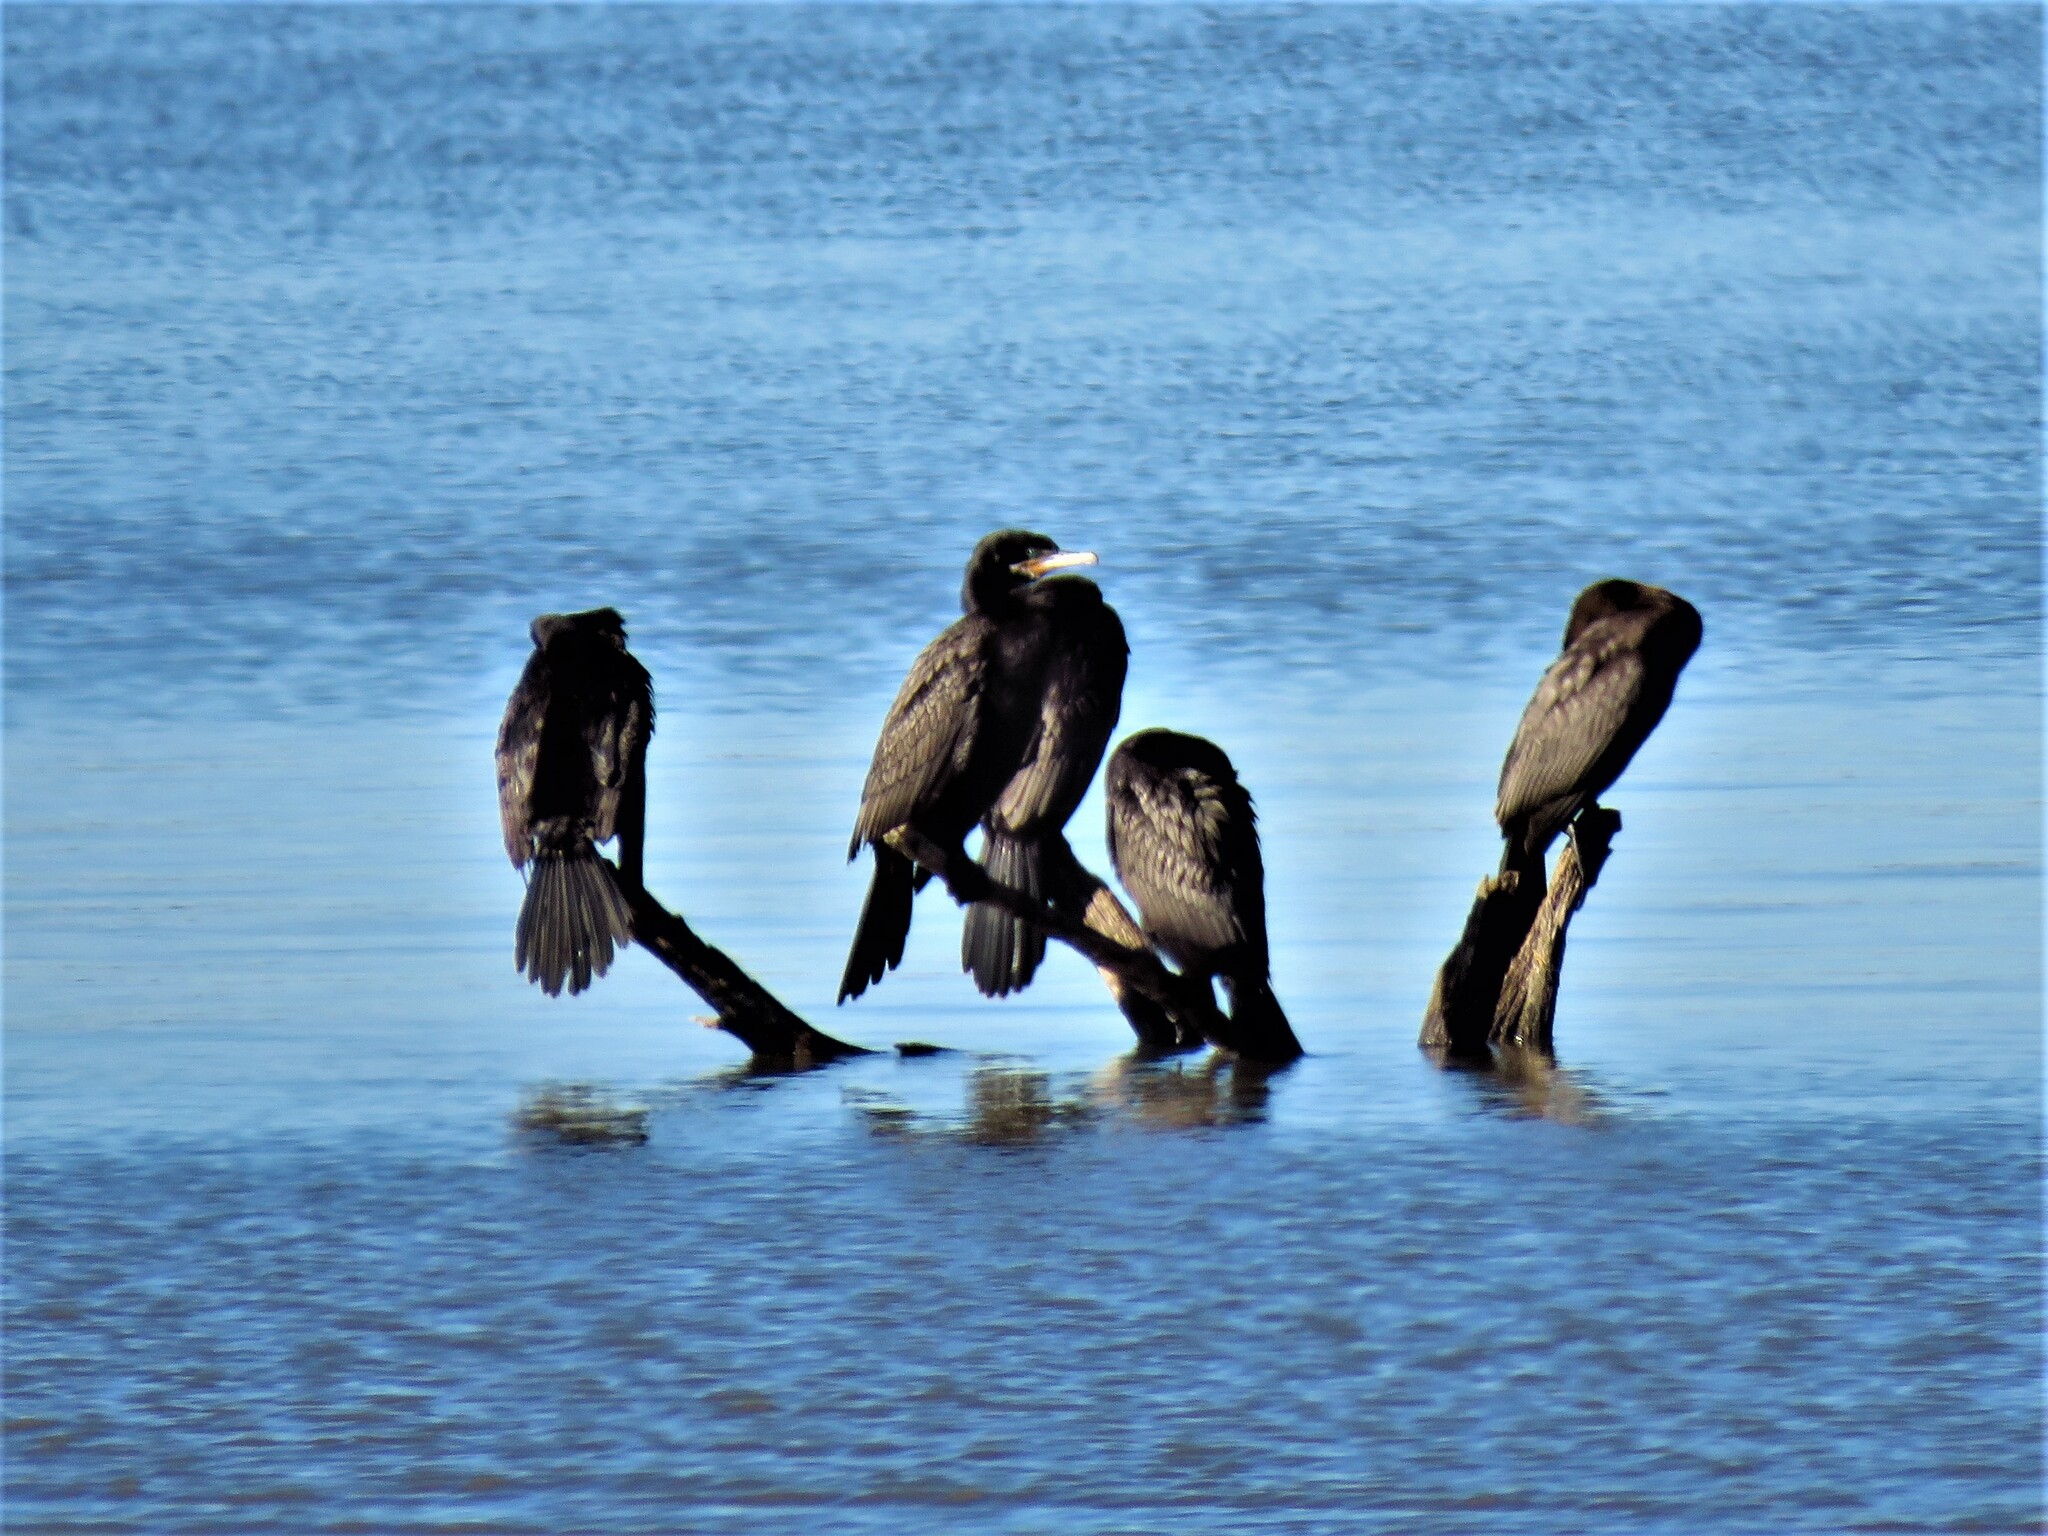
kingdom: Animalia
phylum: Chordata
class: Aves
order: Suliformes
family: Phalacrocoracidae
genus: Phalacrocorax
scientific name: Phalacrocorax brasilianus
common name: Neotropic cormorant
